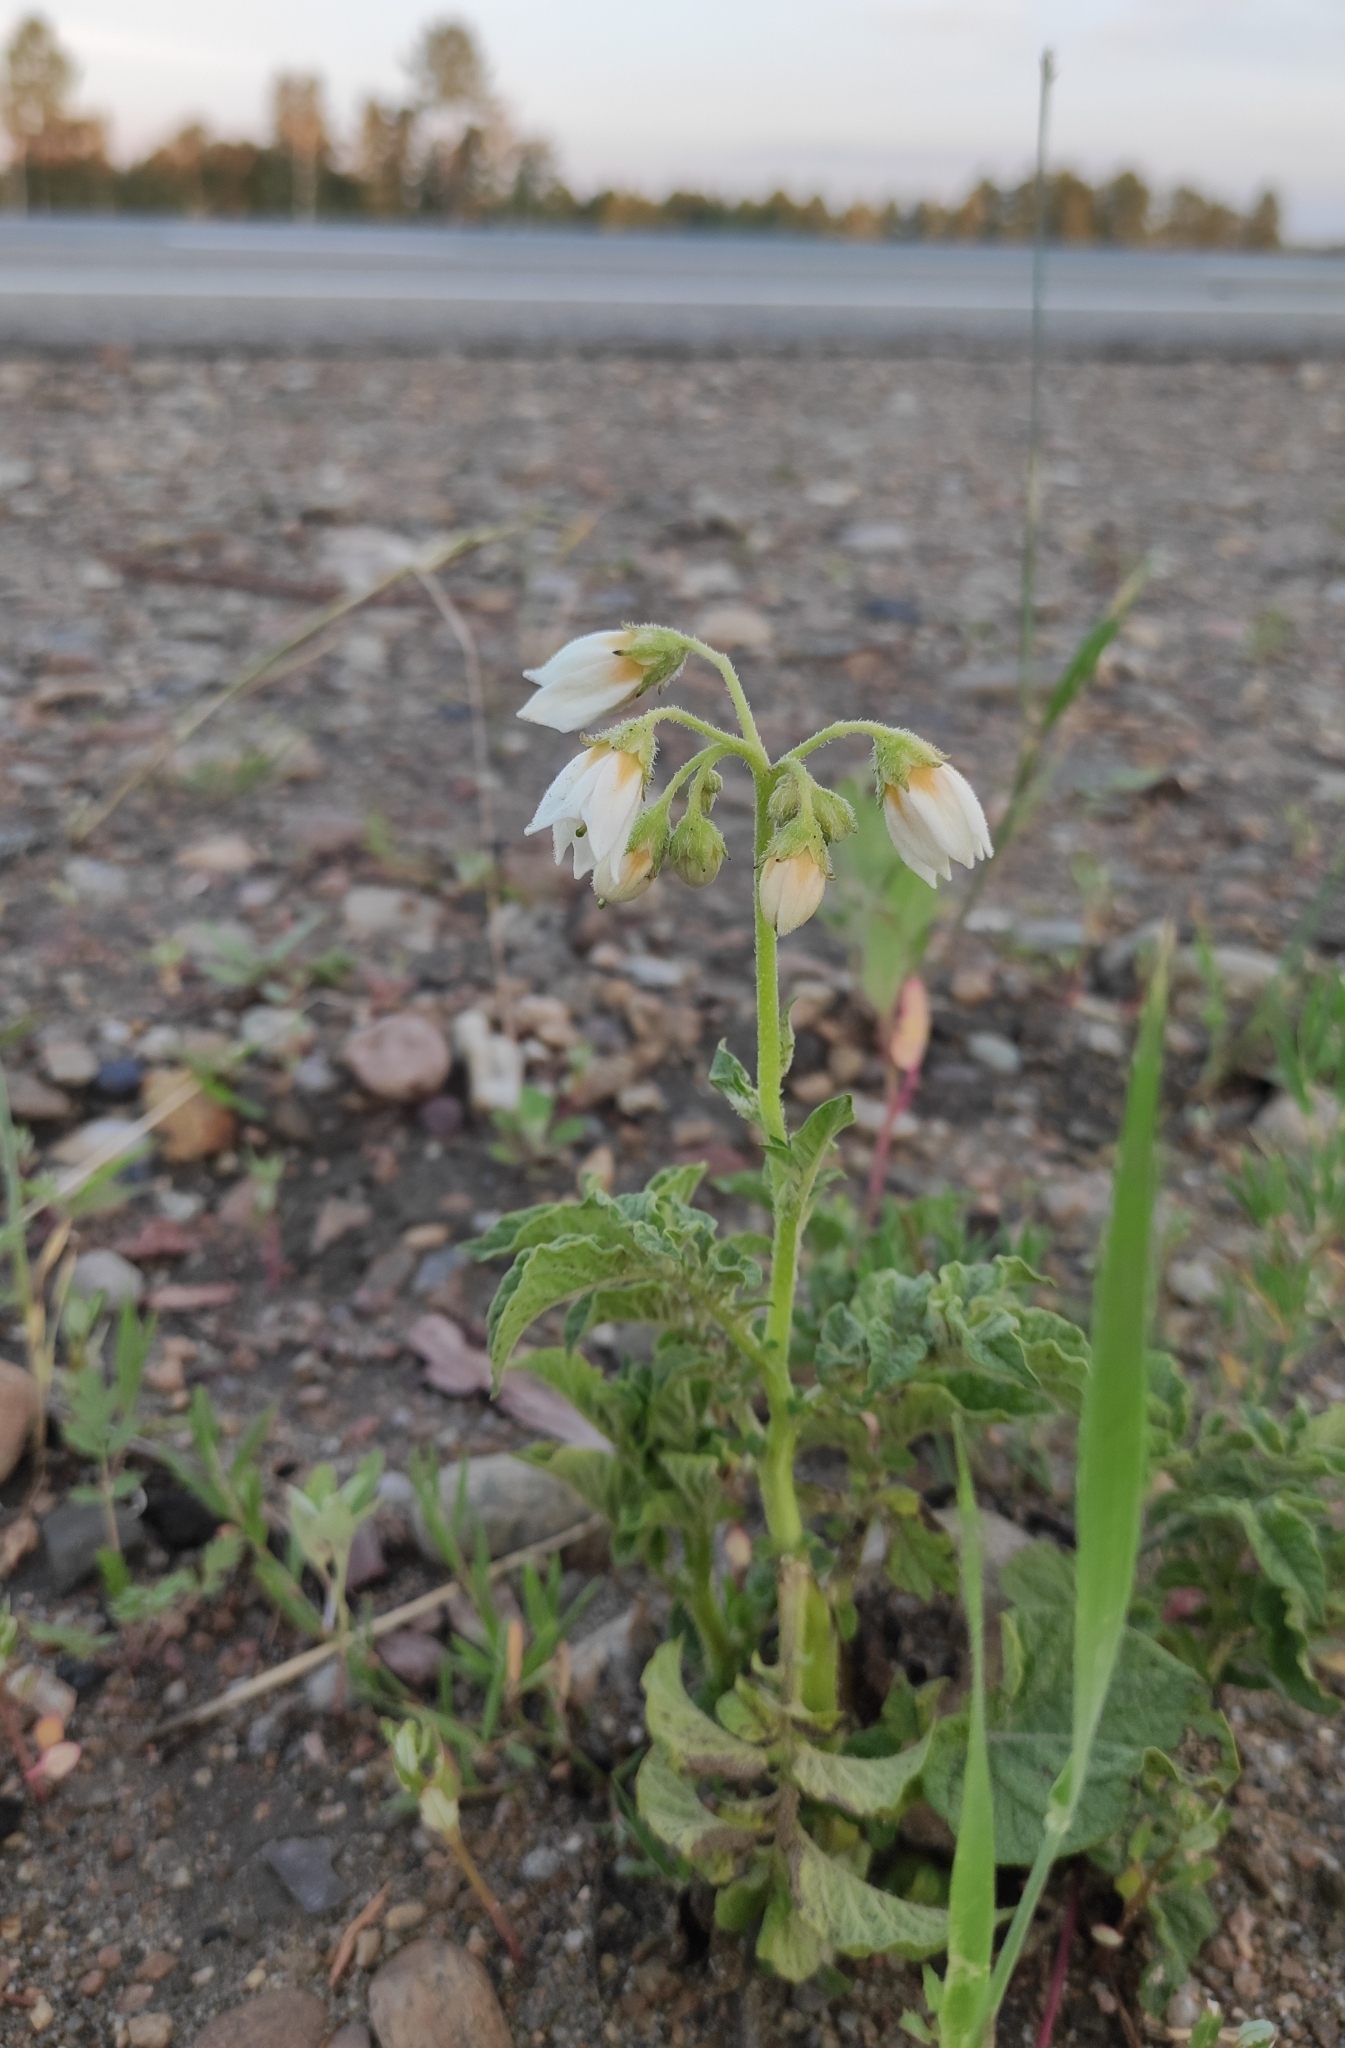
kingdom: Plantae
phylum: Tracheophyta
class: Magnoliopsida
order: Solanales
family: Solanaceae
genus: Solanum
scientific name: Solanum tuberosum
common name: Potato
